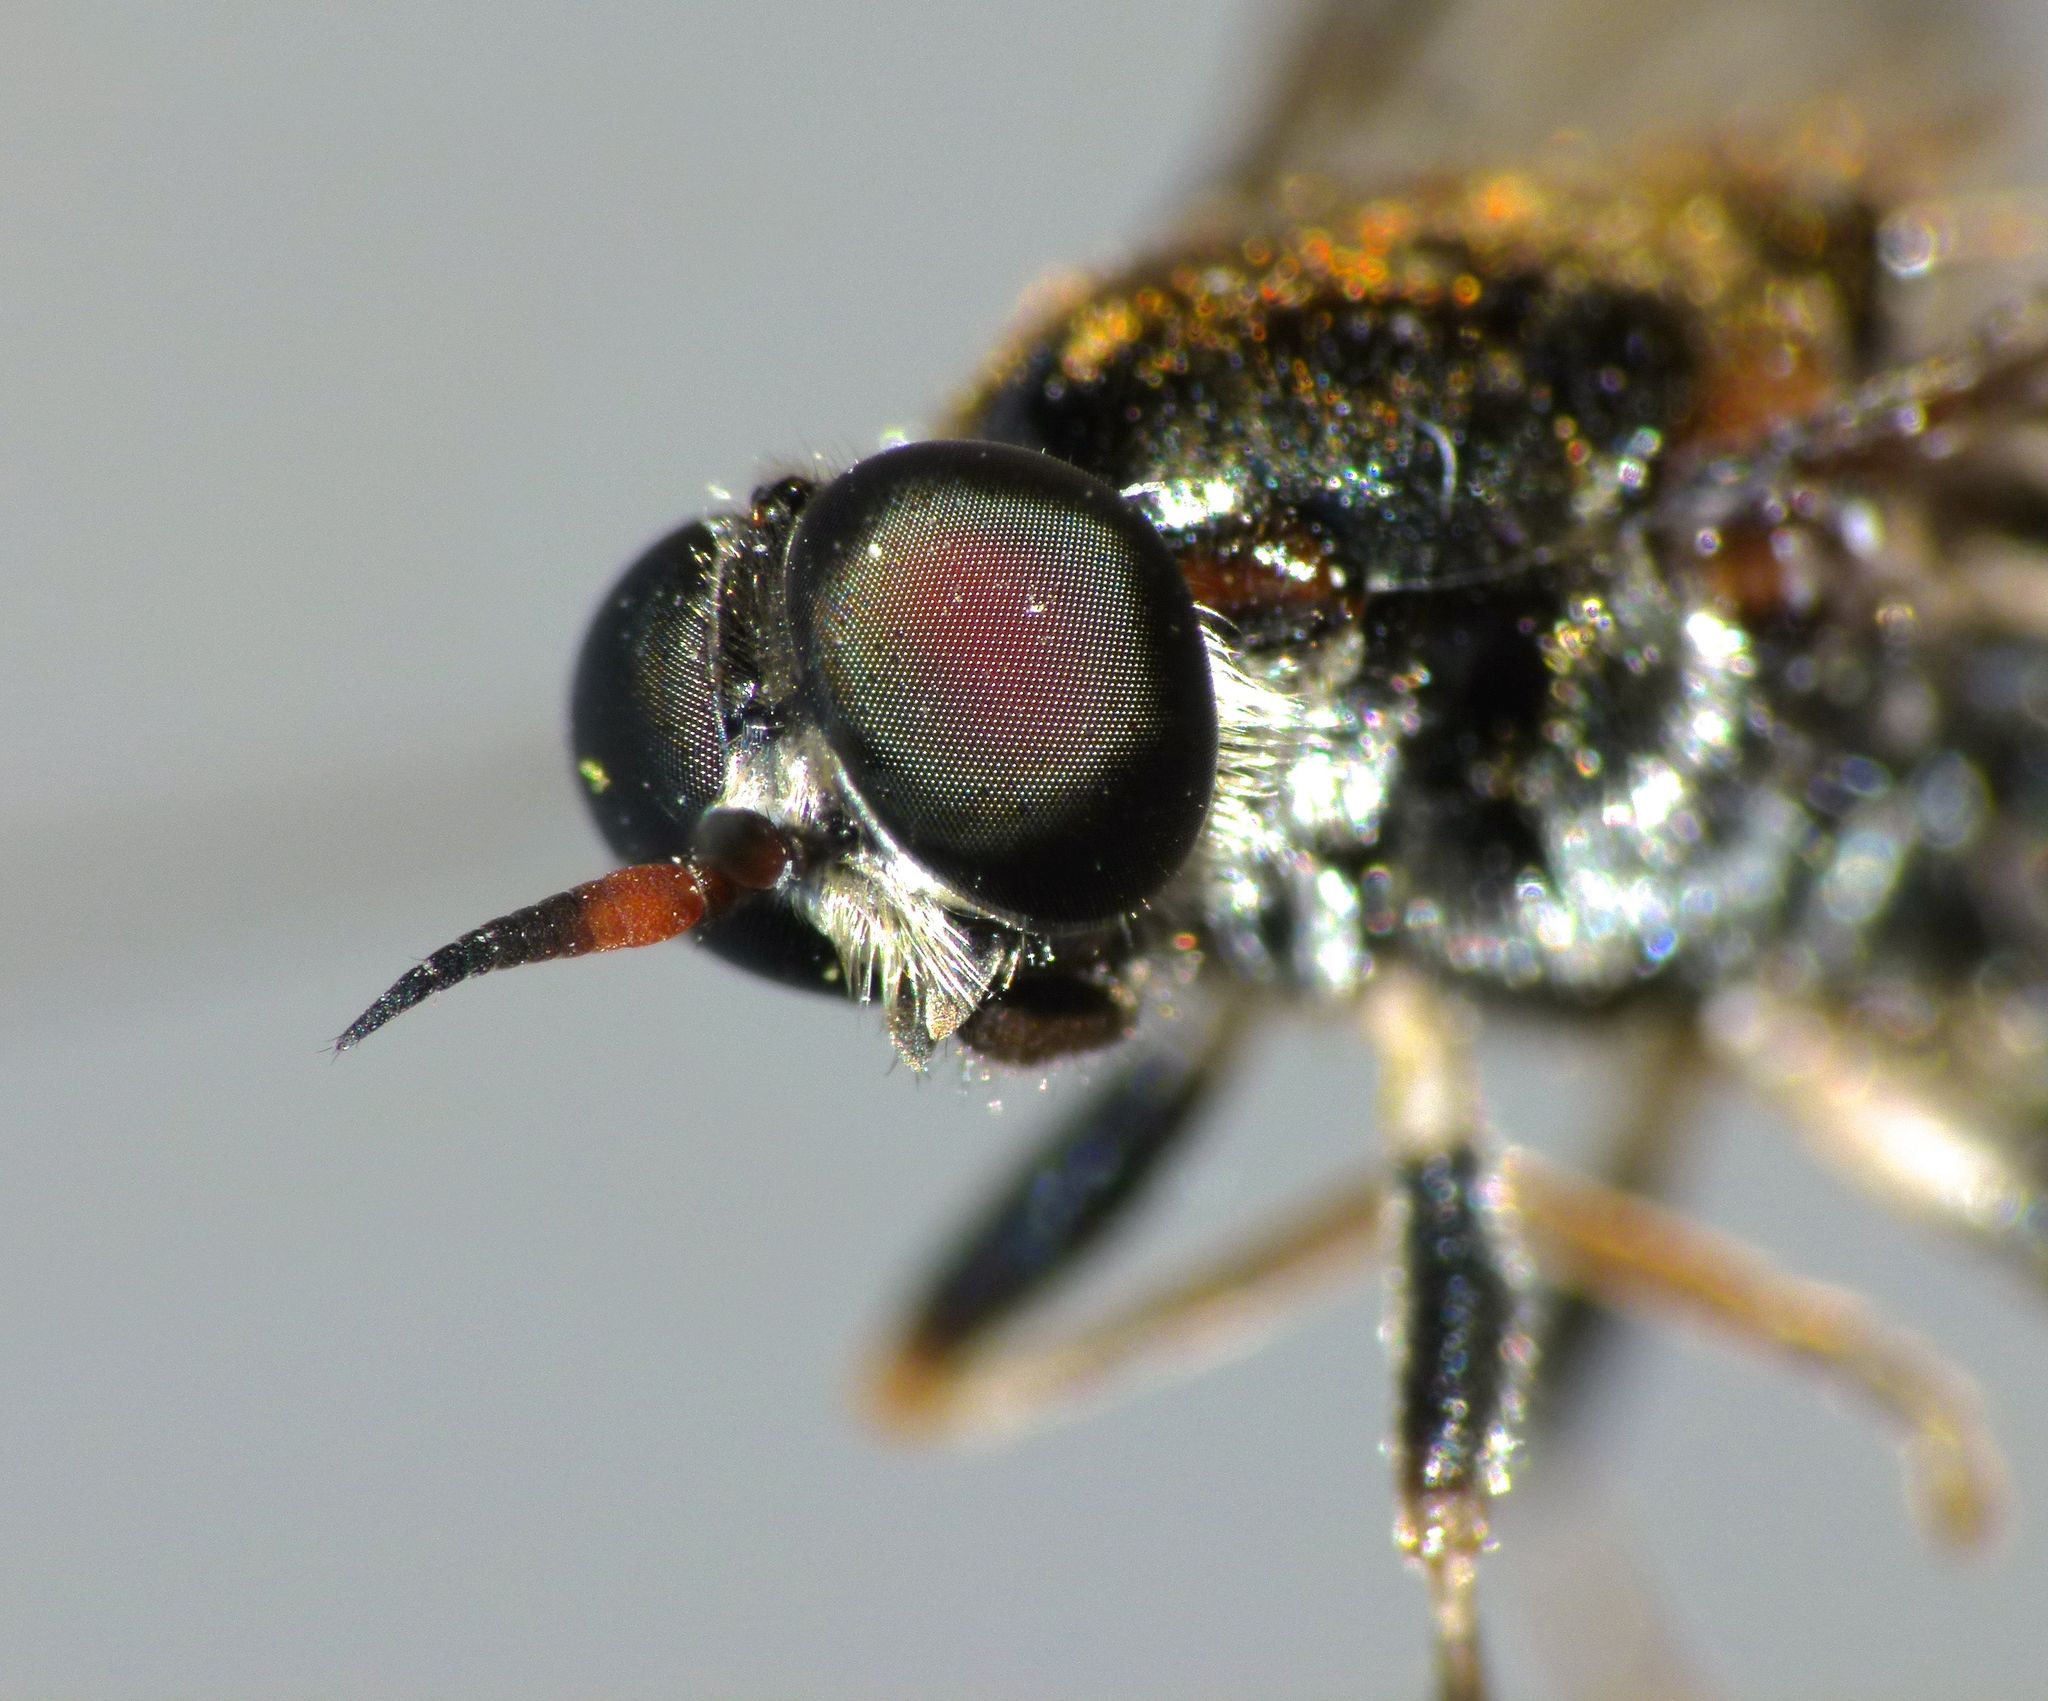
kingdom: Animalia
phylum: Arthropoda
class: Insecta
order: Diptera
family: Stratiomyidae
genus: Exaireta
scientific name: Exaireta spinigera
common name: Blue soldier fly
